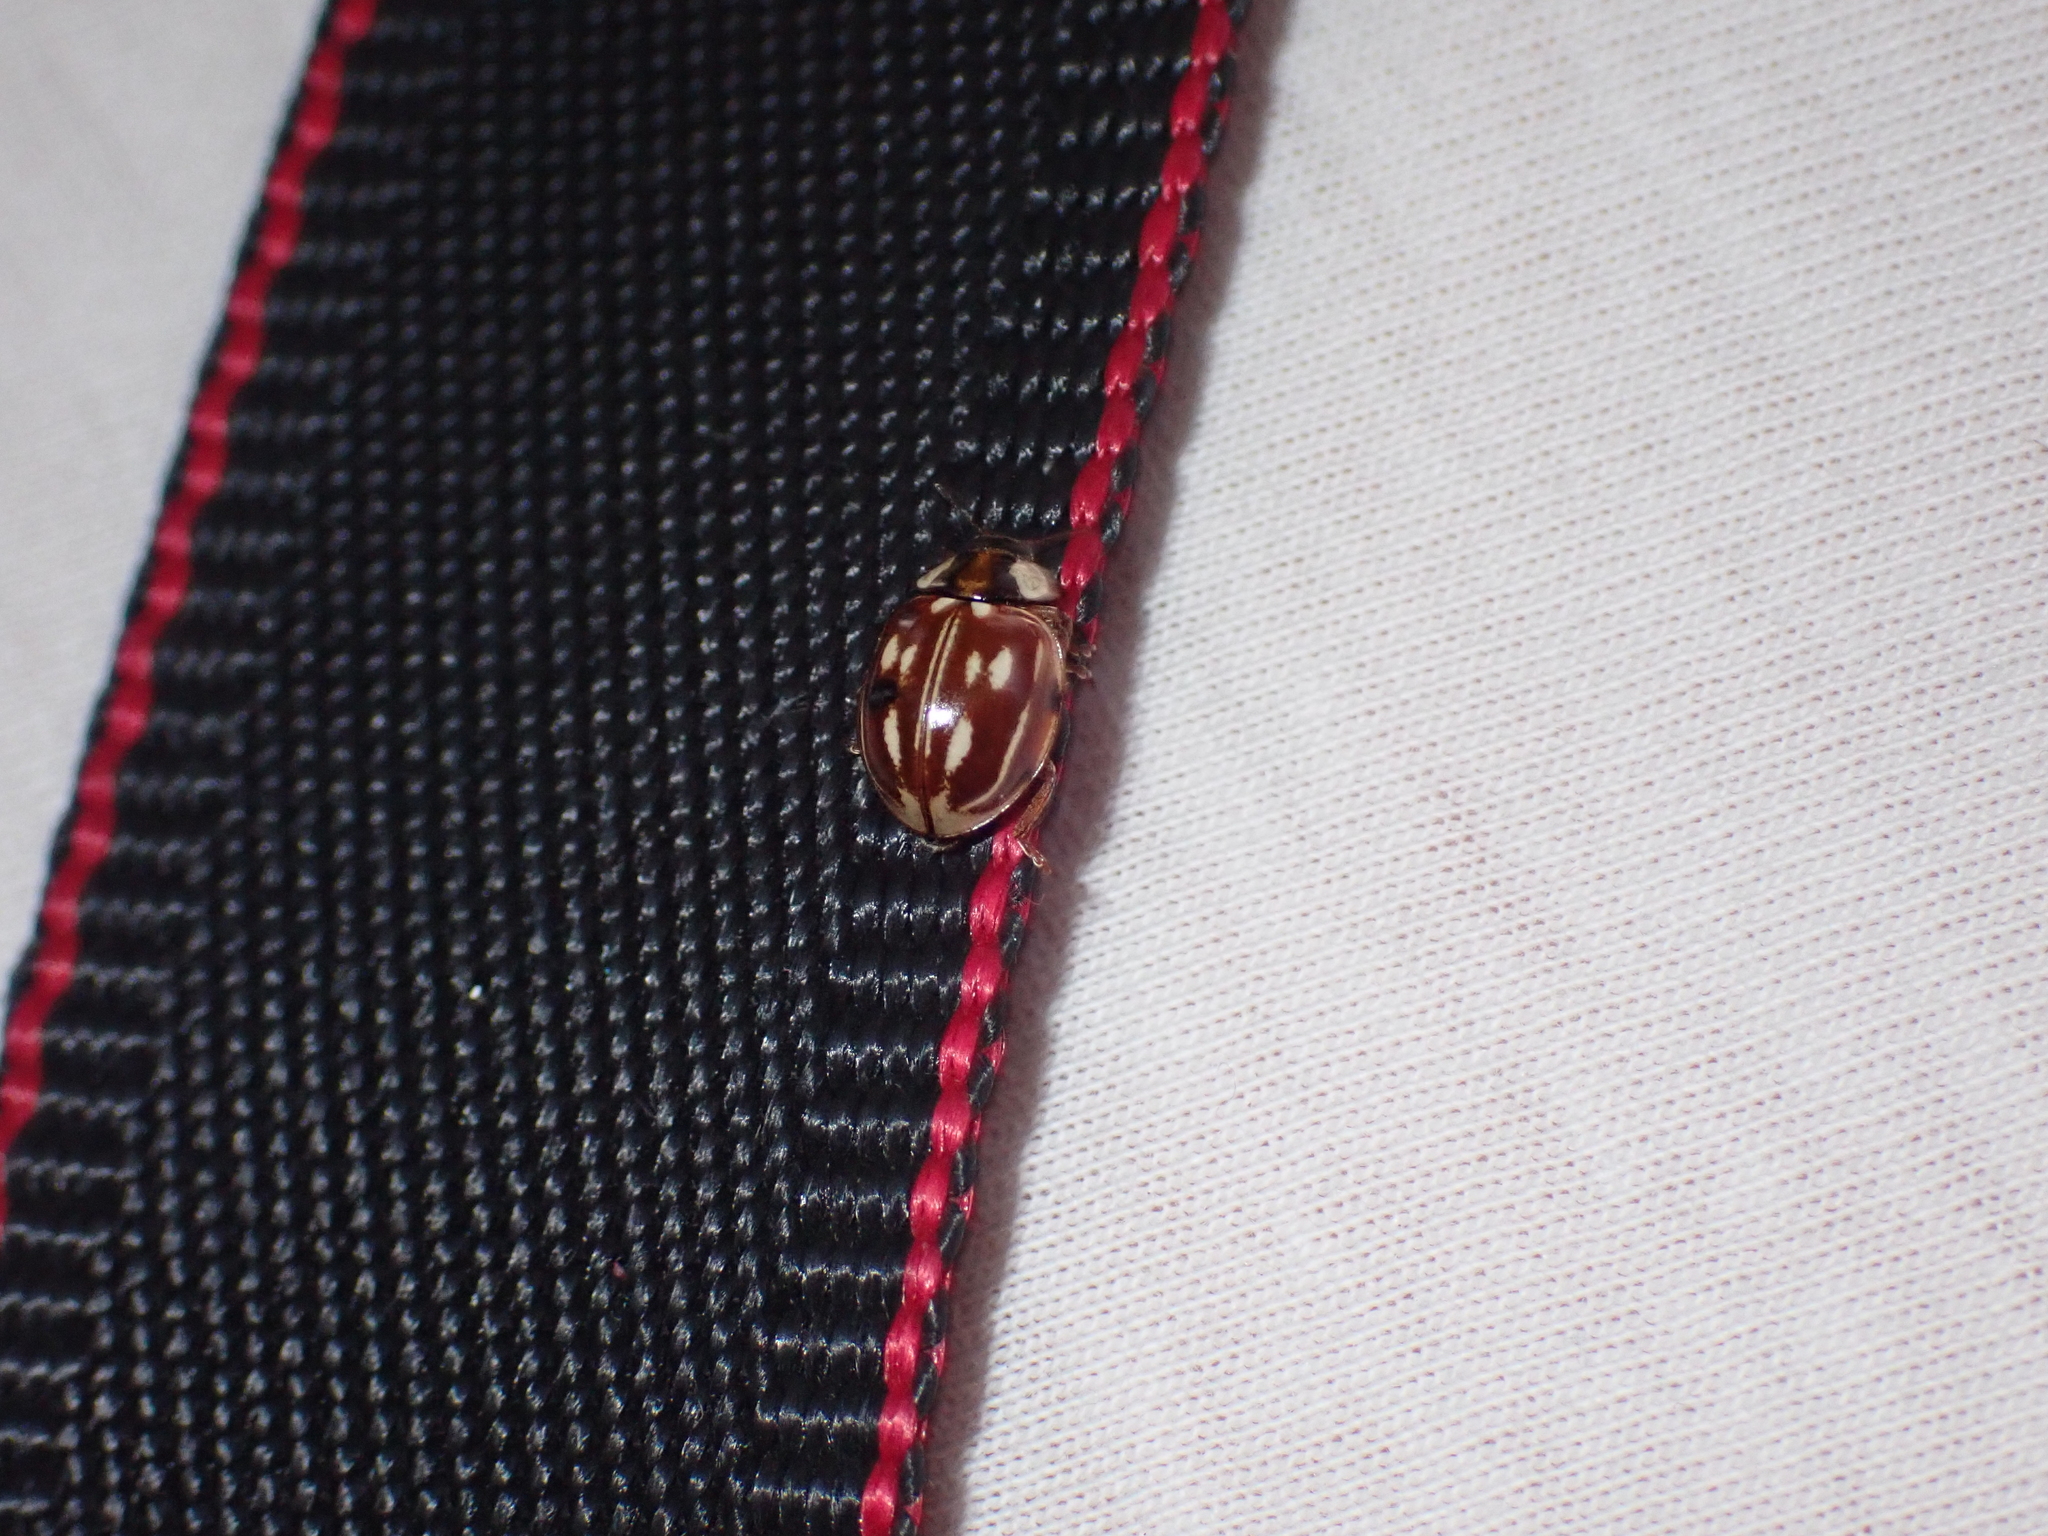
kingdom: Animalia
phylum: Arthropoda
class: Insecta
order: Coleoptera
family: Coccinellidae
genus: Myzia
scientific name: Myzia oblongoguttata
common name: Striped ladybird
